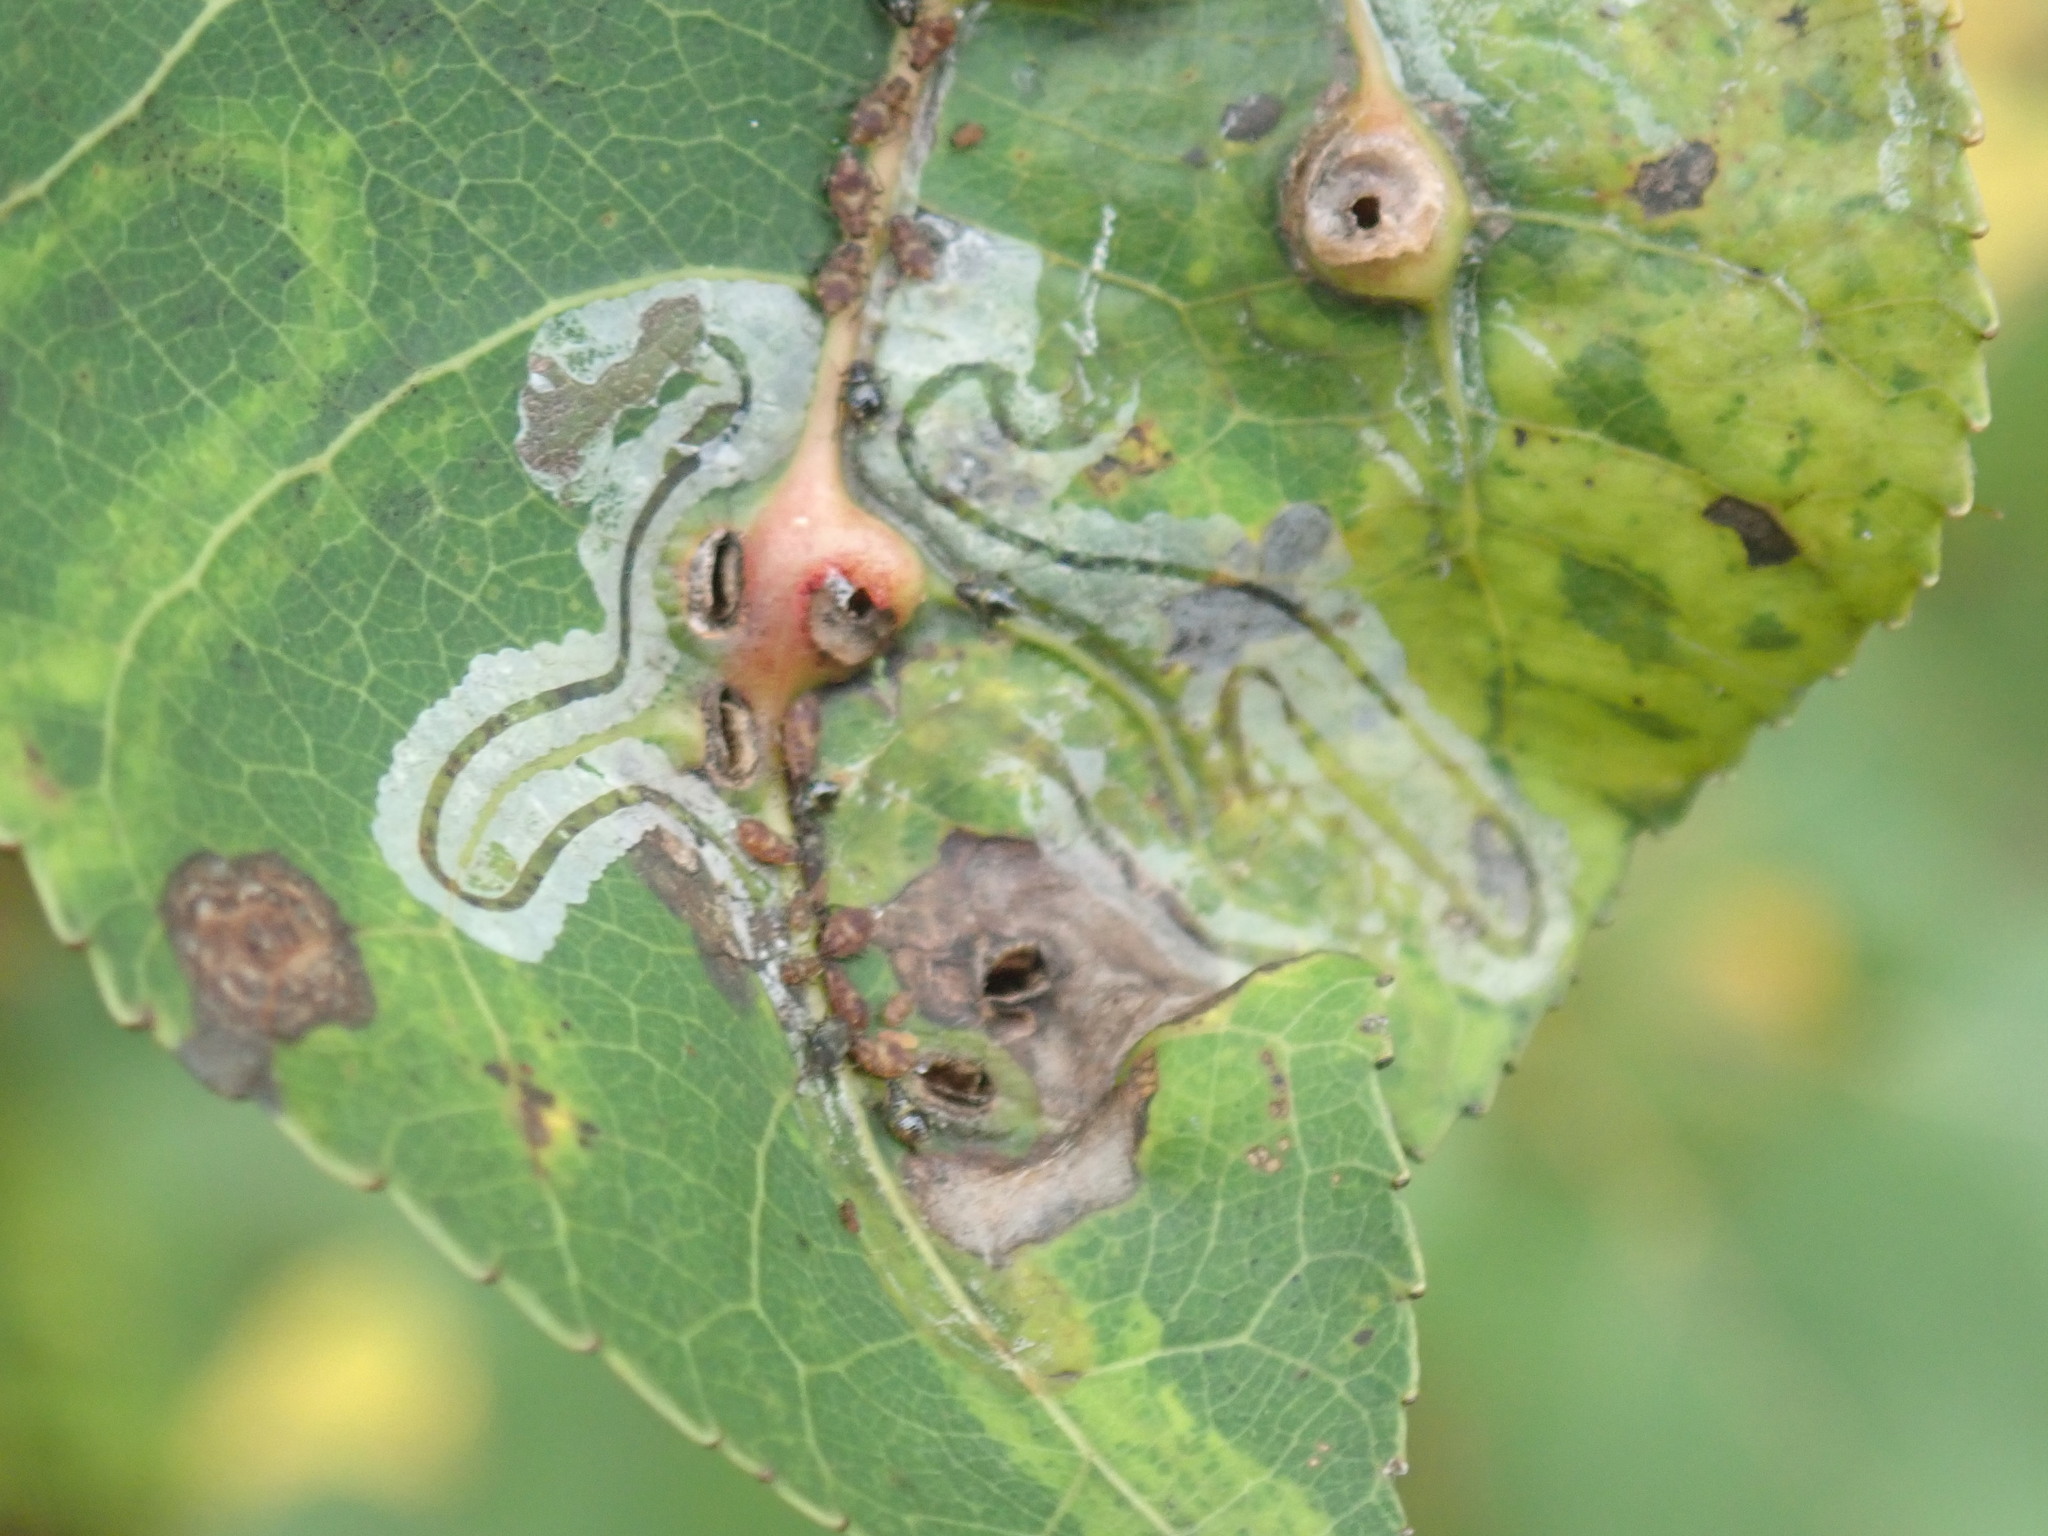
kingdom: Animalia
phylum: Arthropoda
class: Insecta
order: Lepidoptera
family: Gracillariidae
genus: Phyllocnistis
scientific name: Phyllocnistis populiella
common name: Aspen serpentine leafminer moth
